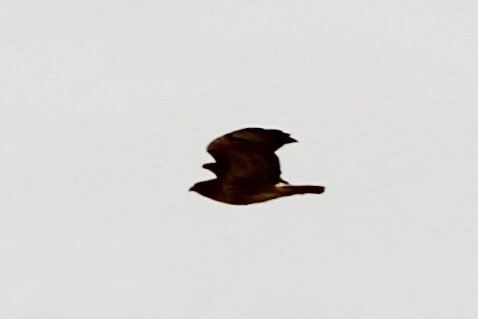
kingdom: Animalia
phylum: Chordata
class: Aves
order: Accipitriformes
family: Accipitridae
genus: Buteo
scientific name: Buteo jamaicensis
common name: Red-tailed hawk
